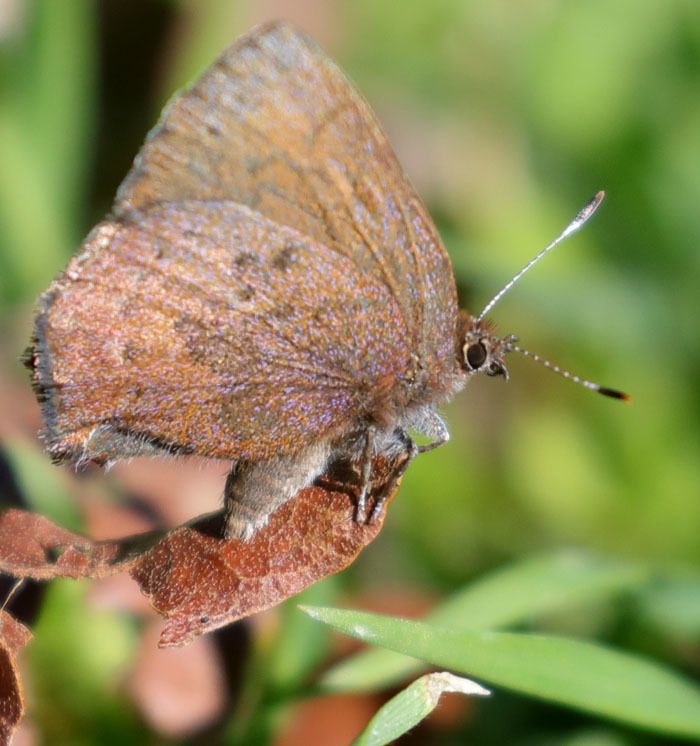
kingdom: Animalia
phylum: Arthropoda
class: Insecta
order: Lepidoptera
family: Lycaenidae
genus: Incisalia
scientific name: Incisalia irioides
